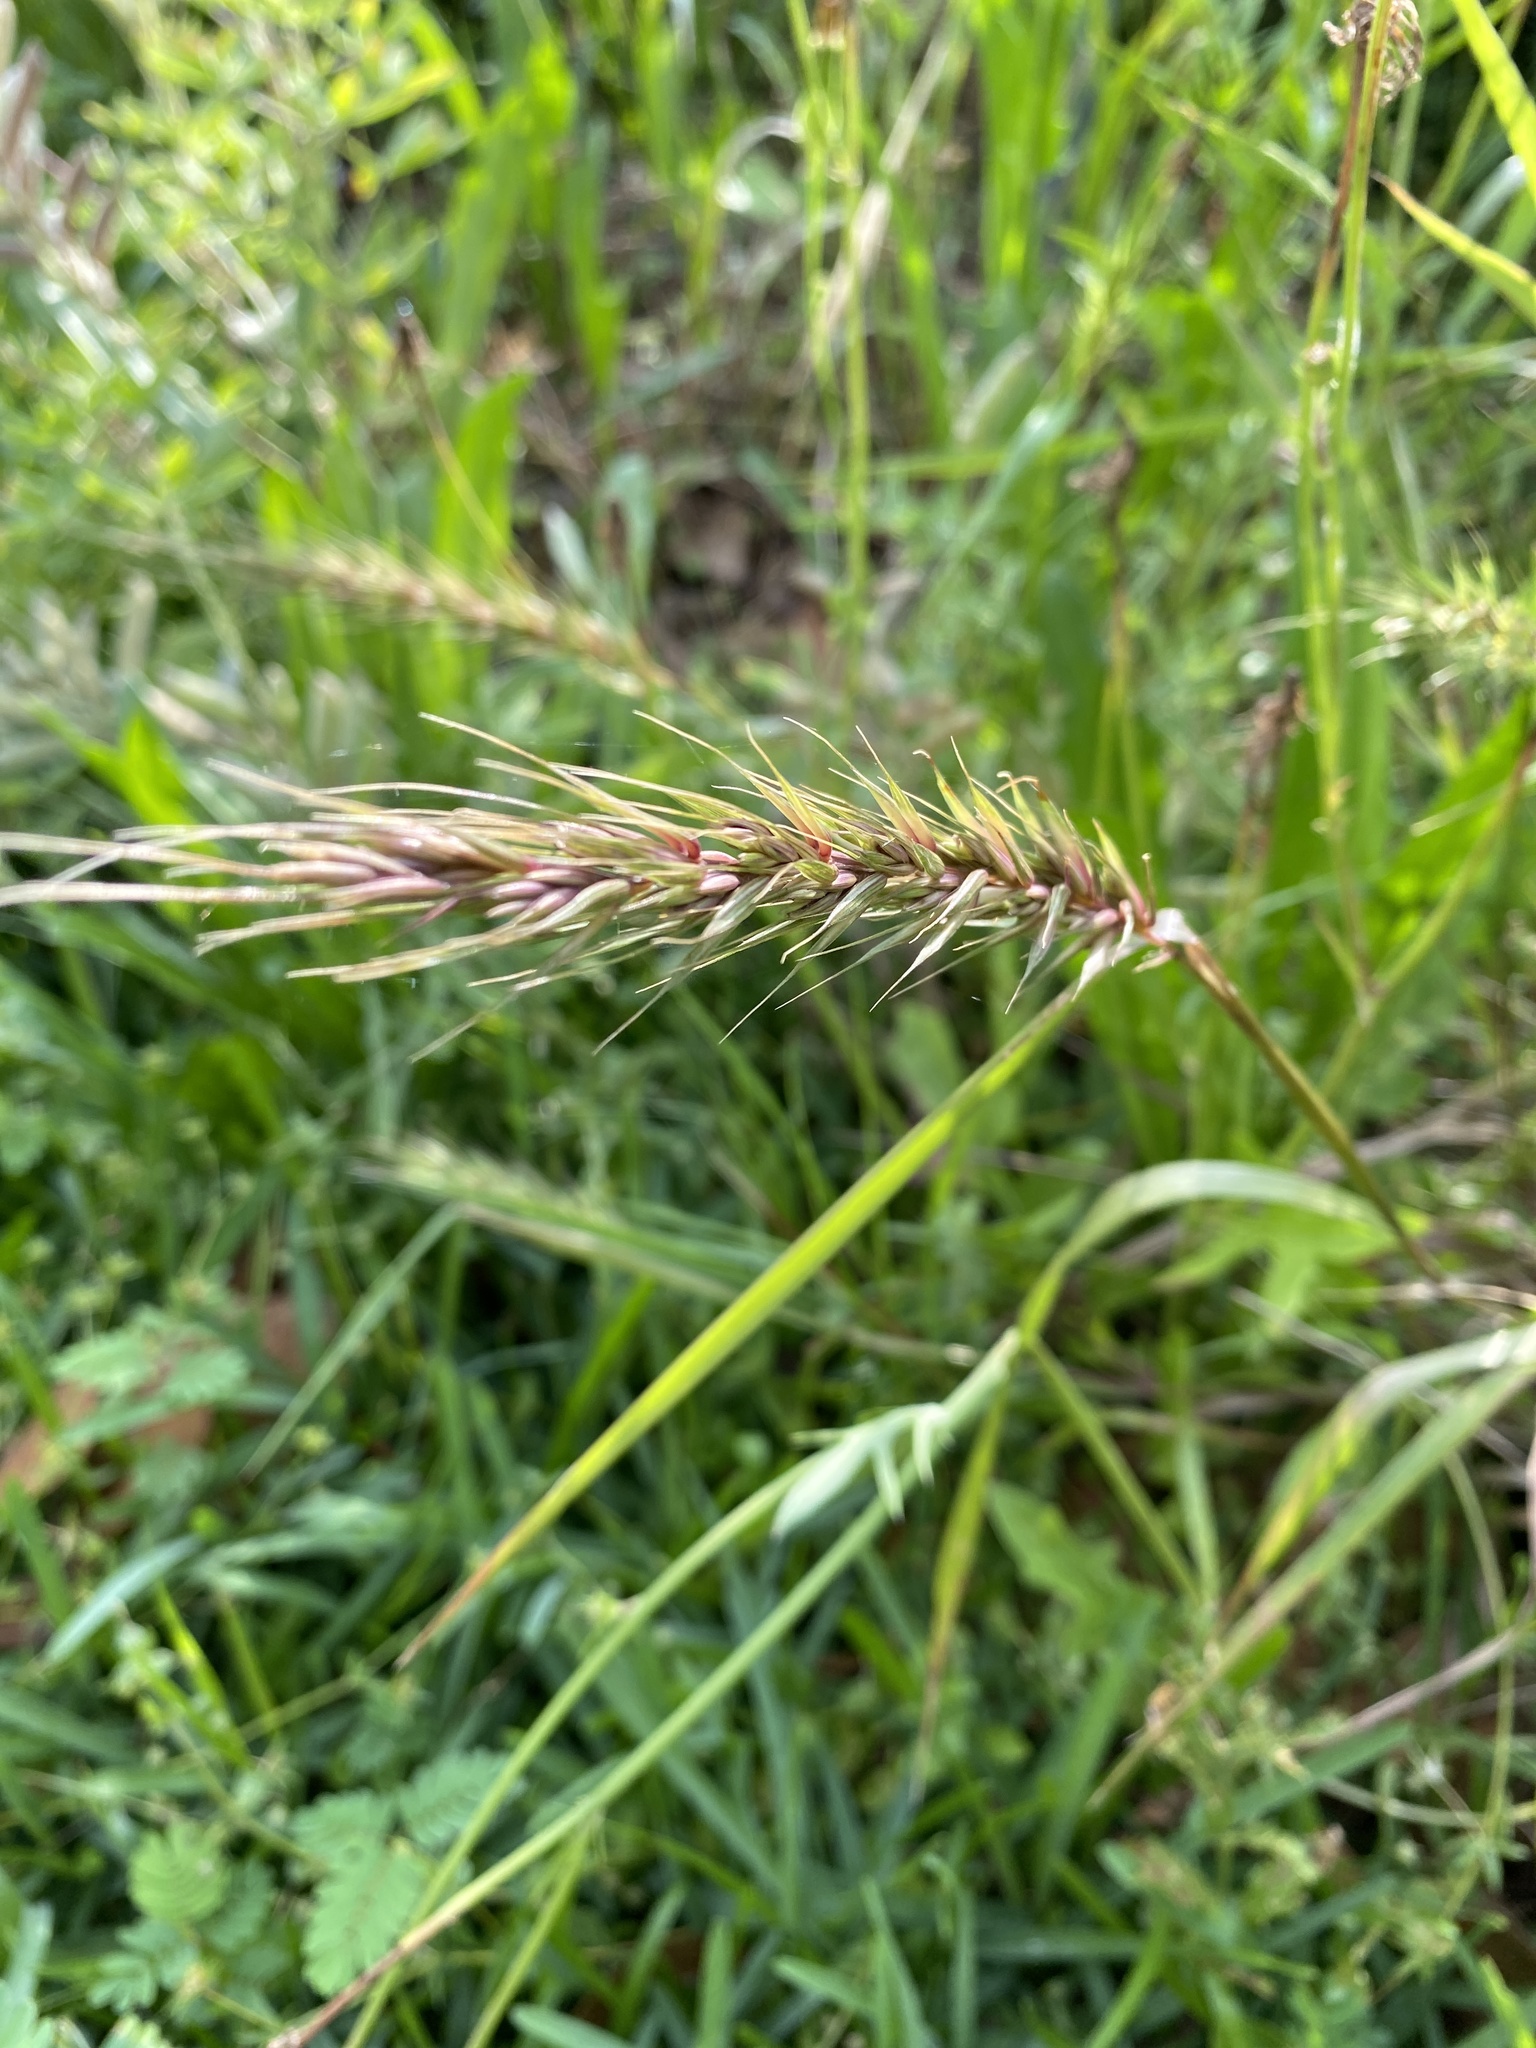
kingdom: Plantae
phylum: Tracheophyta
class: Liliopsida
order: Poales
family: Poaceae
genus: Elymus
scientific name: Elymus virginicus
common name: Common eastern wildrye
